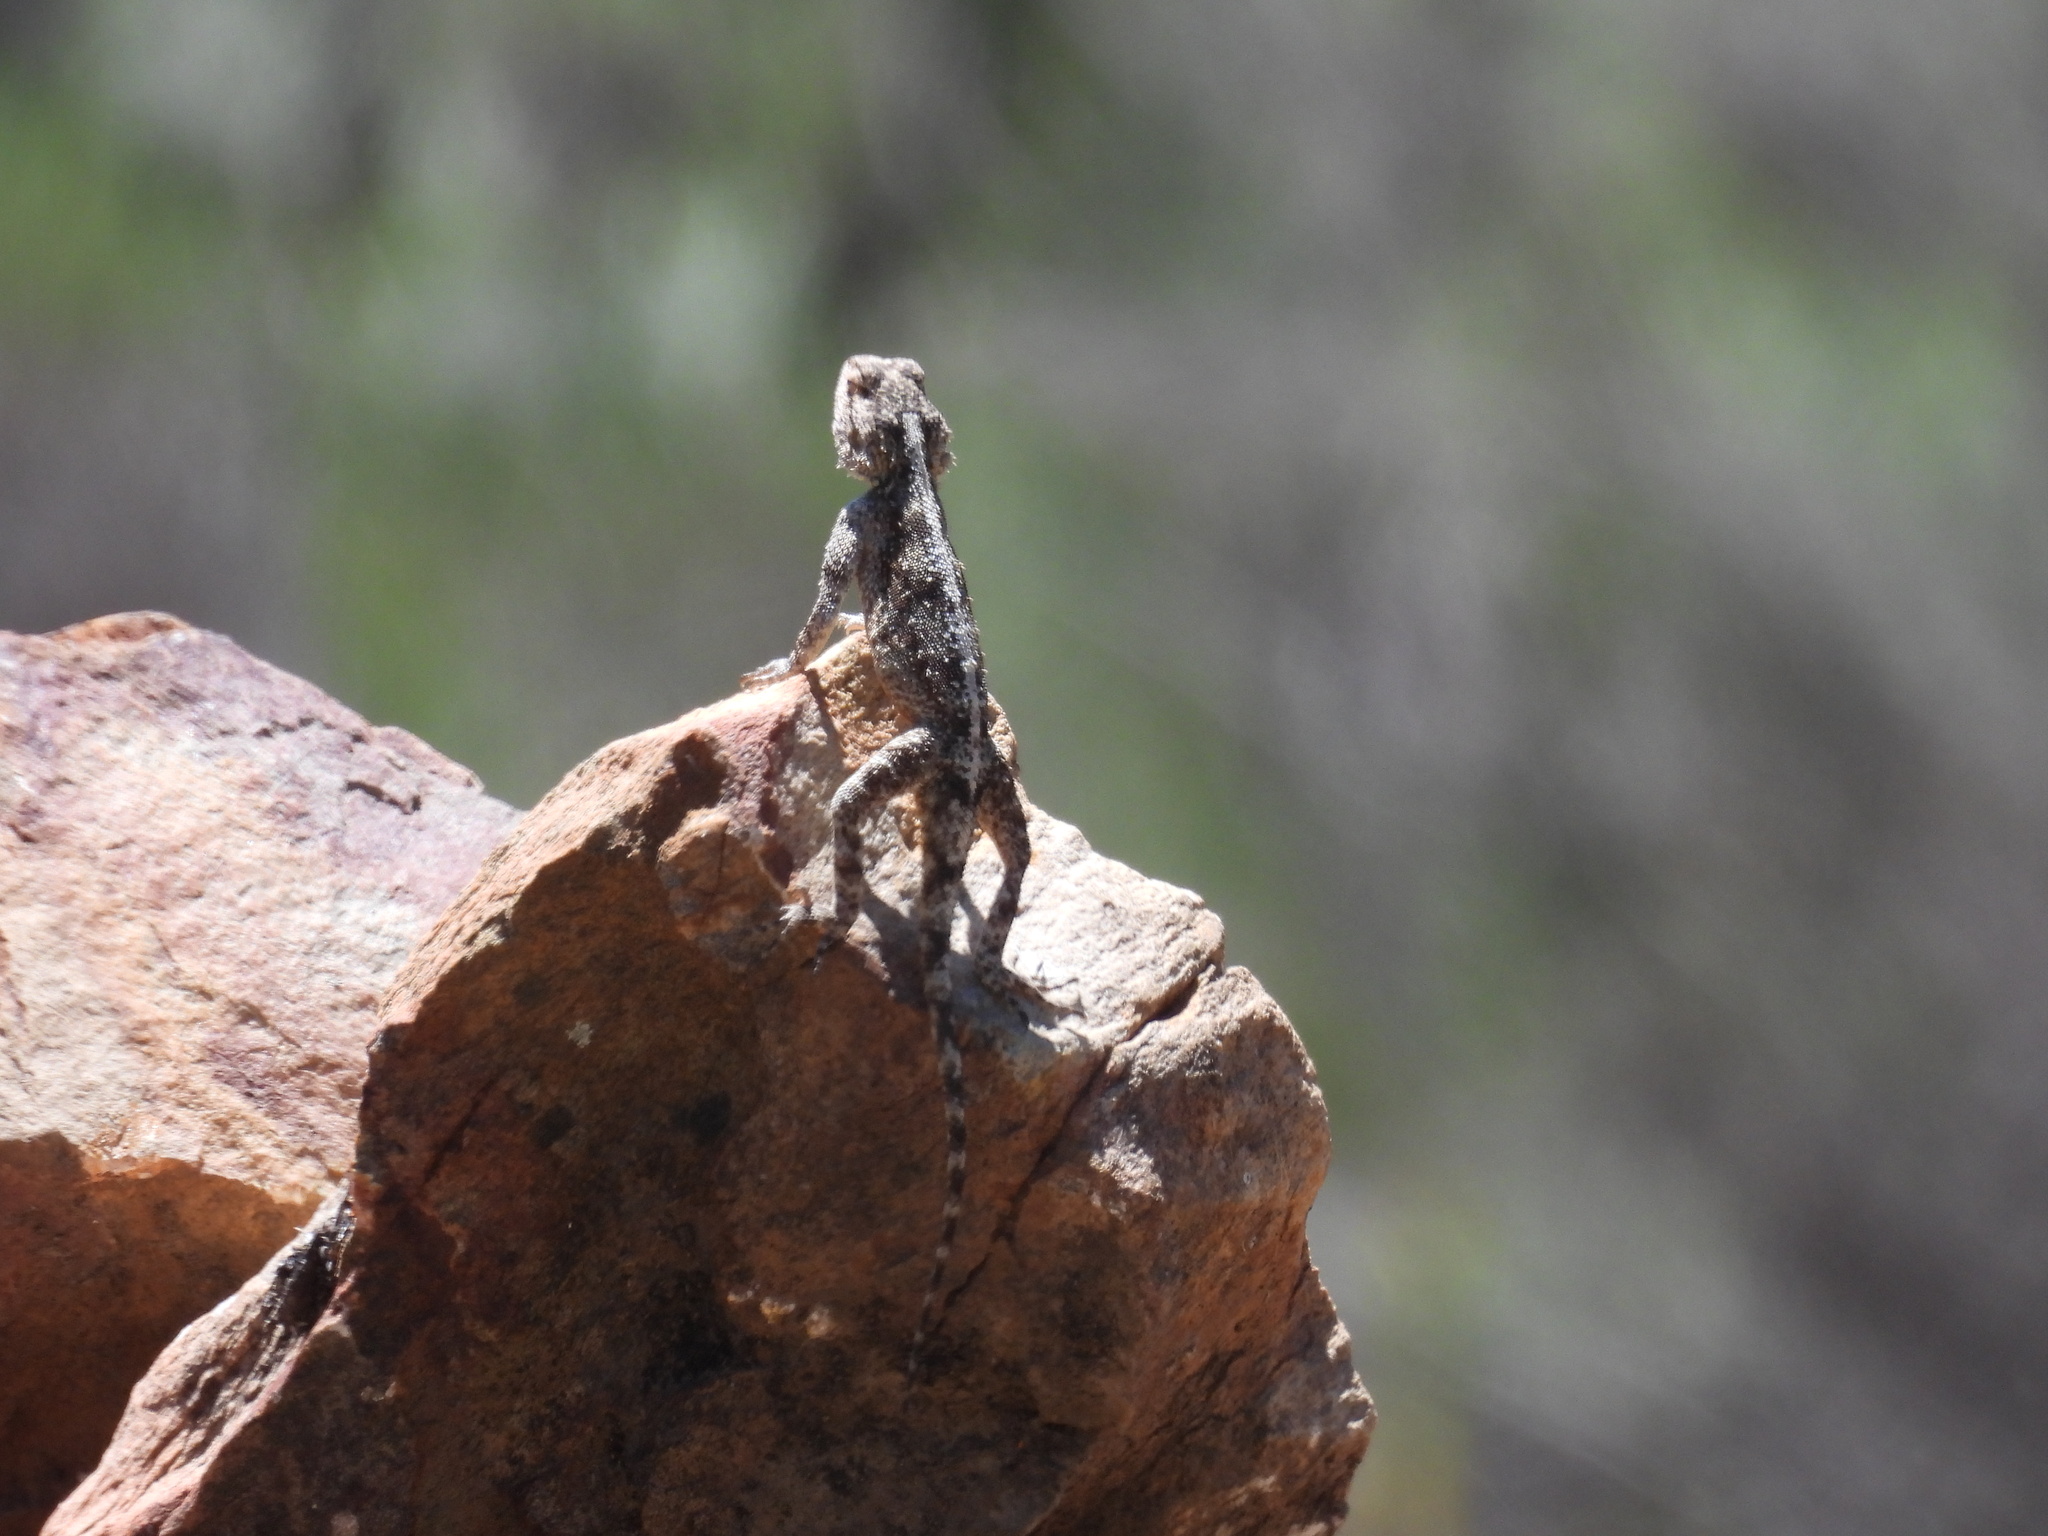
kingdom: Animalia
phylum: Chordata
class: Squamata
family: Agamidae
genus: Agama
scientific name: Agama atra
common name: Southern african rock agama
